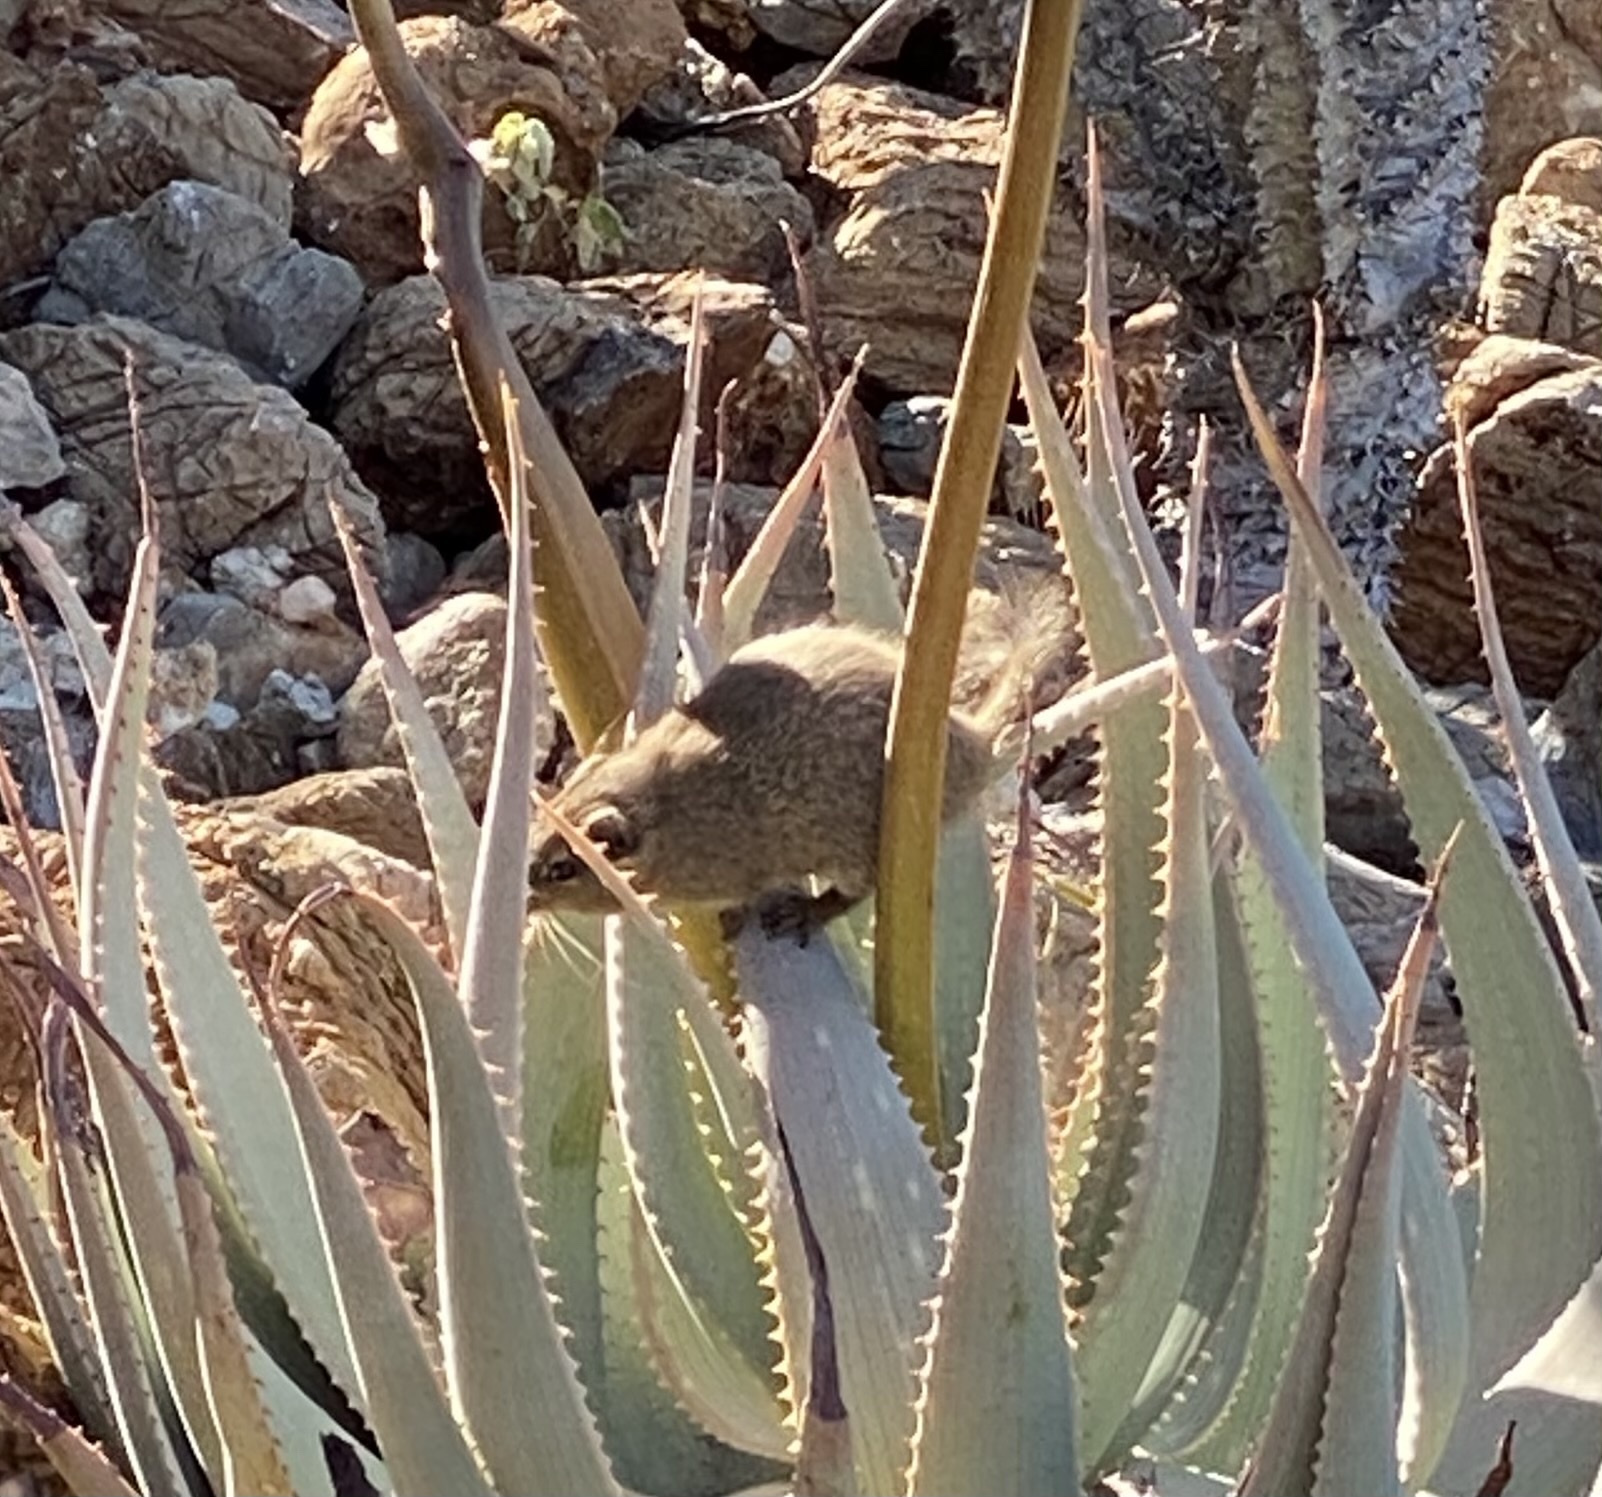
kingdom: Animalia
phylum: Chordata
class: Mammalia
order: Rodentia
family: Petromuridae
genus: Petromus
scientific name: Petromus typicus
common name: Dassie rat
